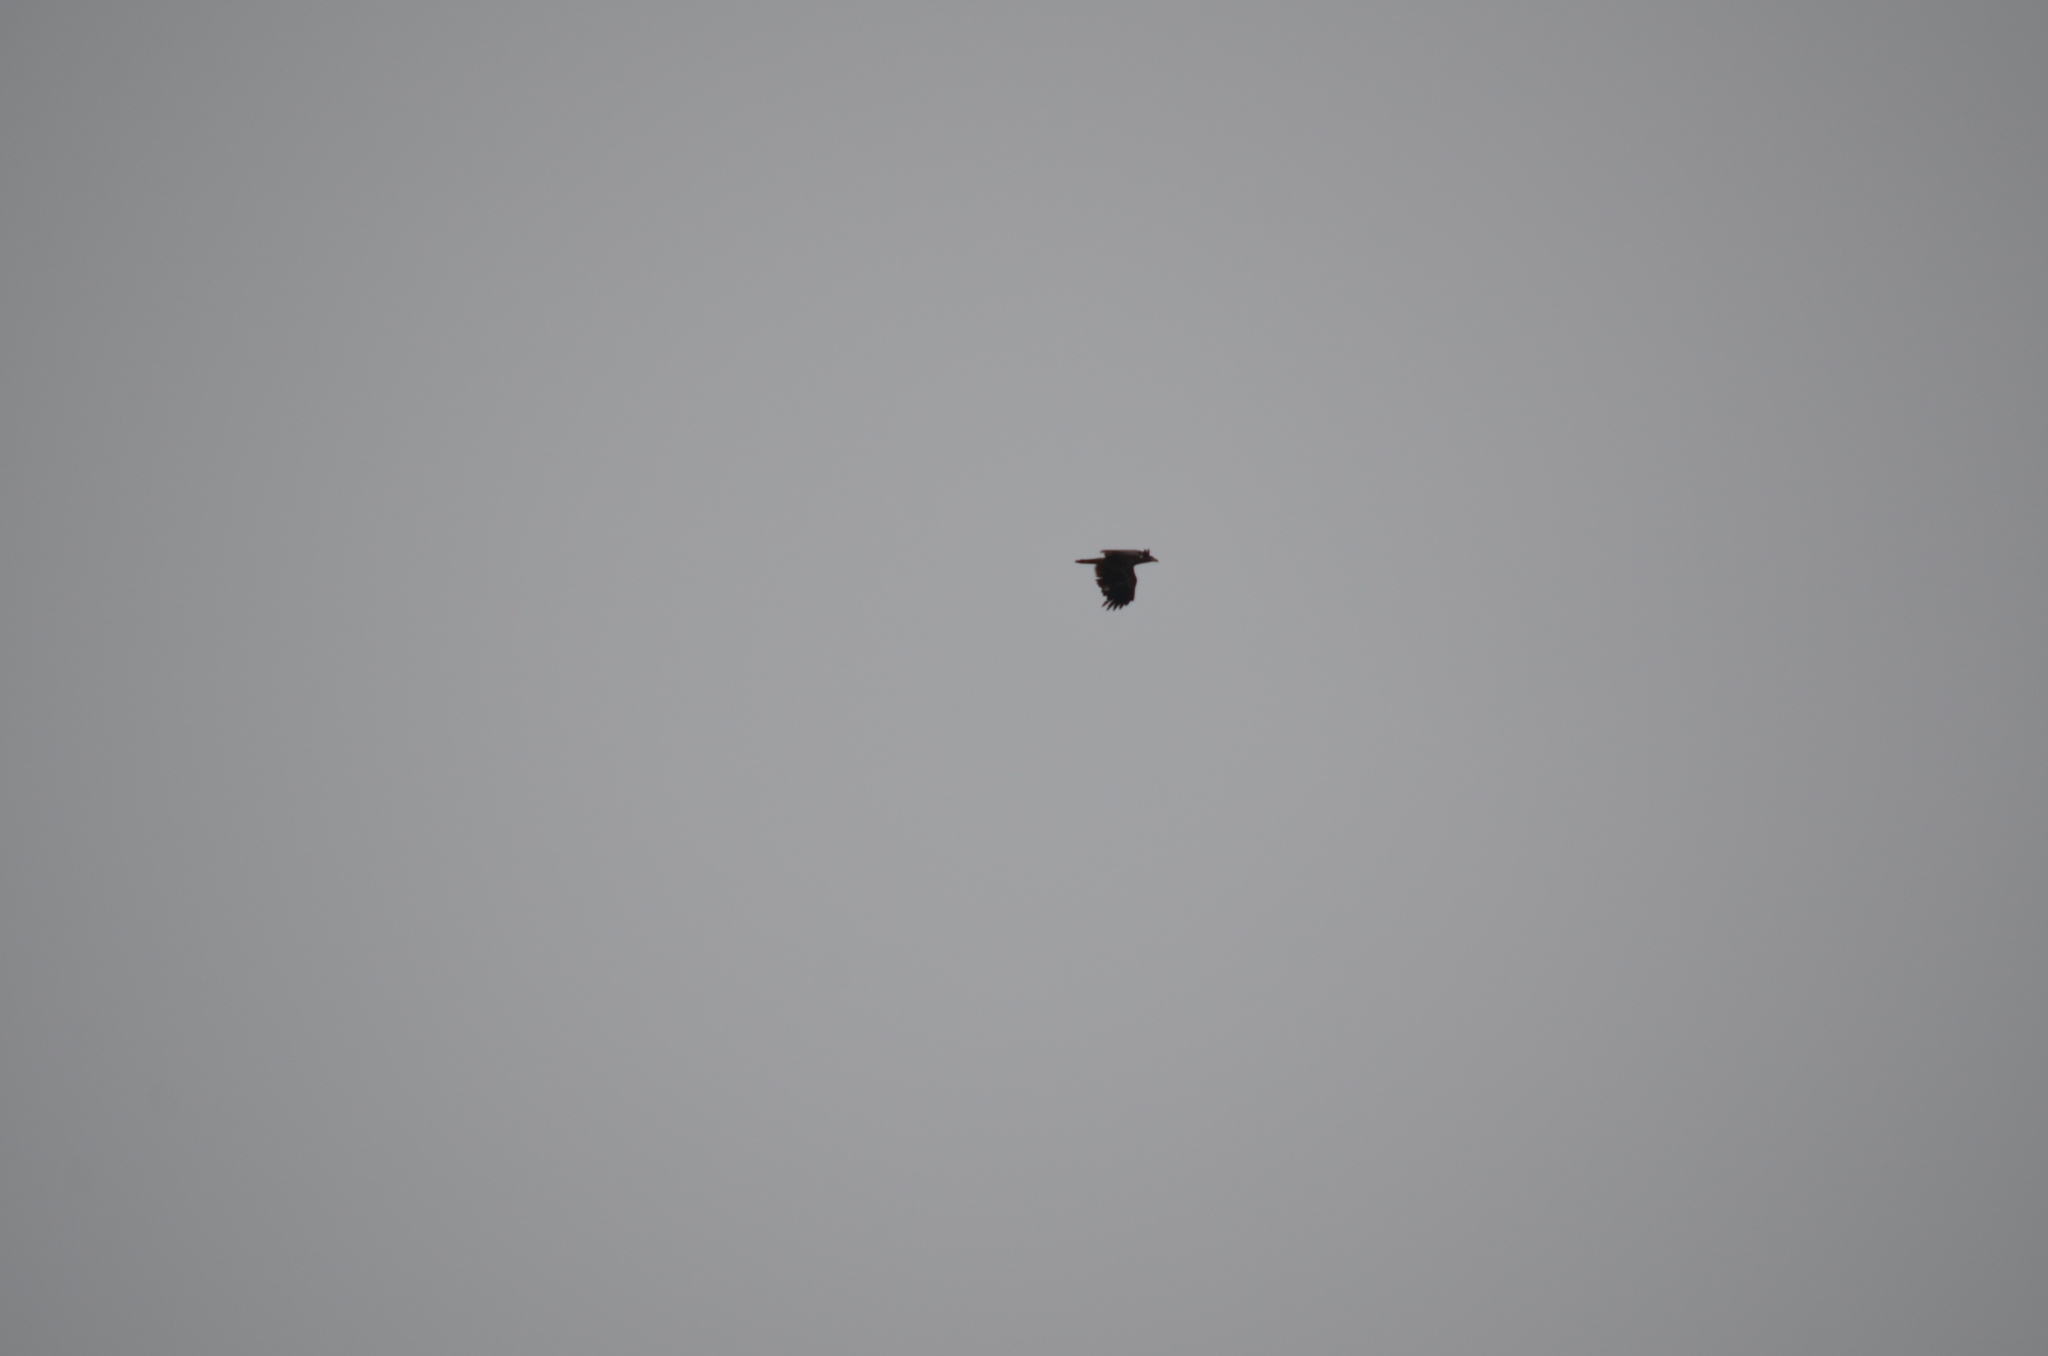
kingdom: Animalia
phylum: Chordata
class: Aves
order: Accipitriformes
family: Accipitridae
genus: Haliaeetus
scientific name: Haliaeetus leucocephalus
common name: Bald eagle
